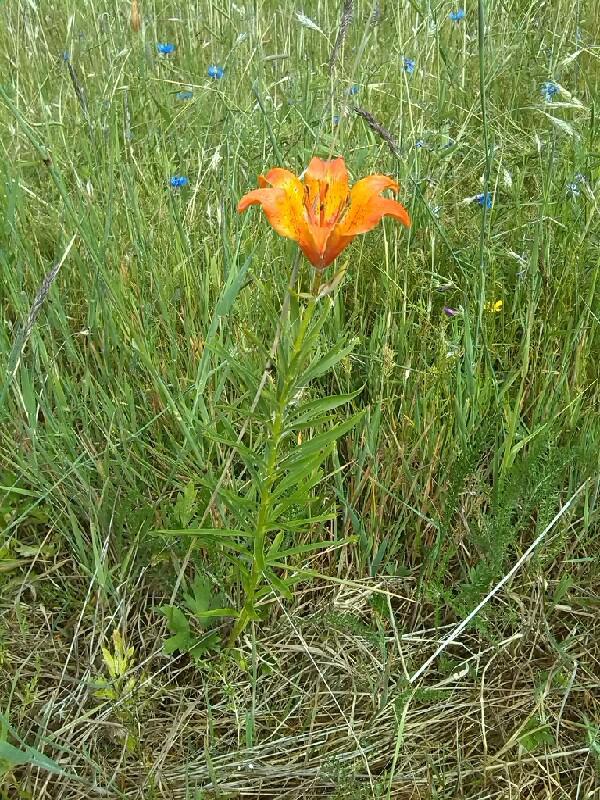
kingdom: Plantae
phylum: Tracheophyta
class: Liliopsida
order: Liliales
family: Liliaceae
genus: Lilium
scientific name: Lilium bulbiferum
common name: Orange lily
